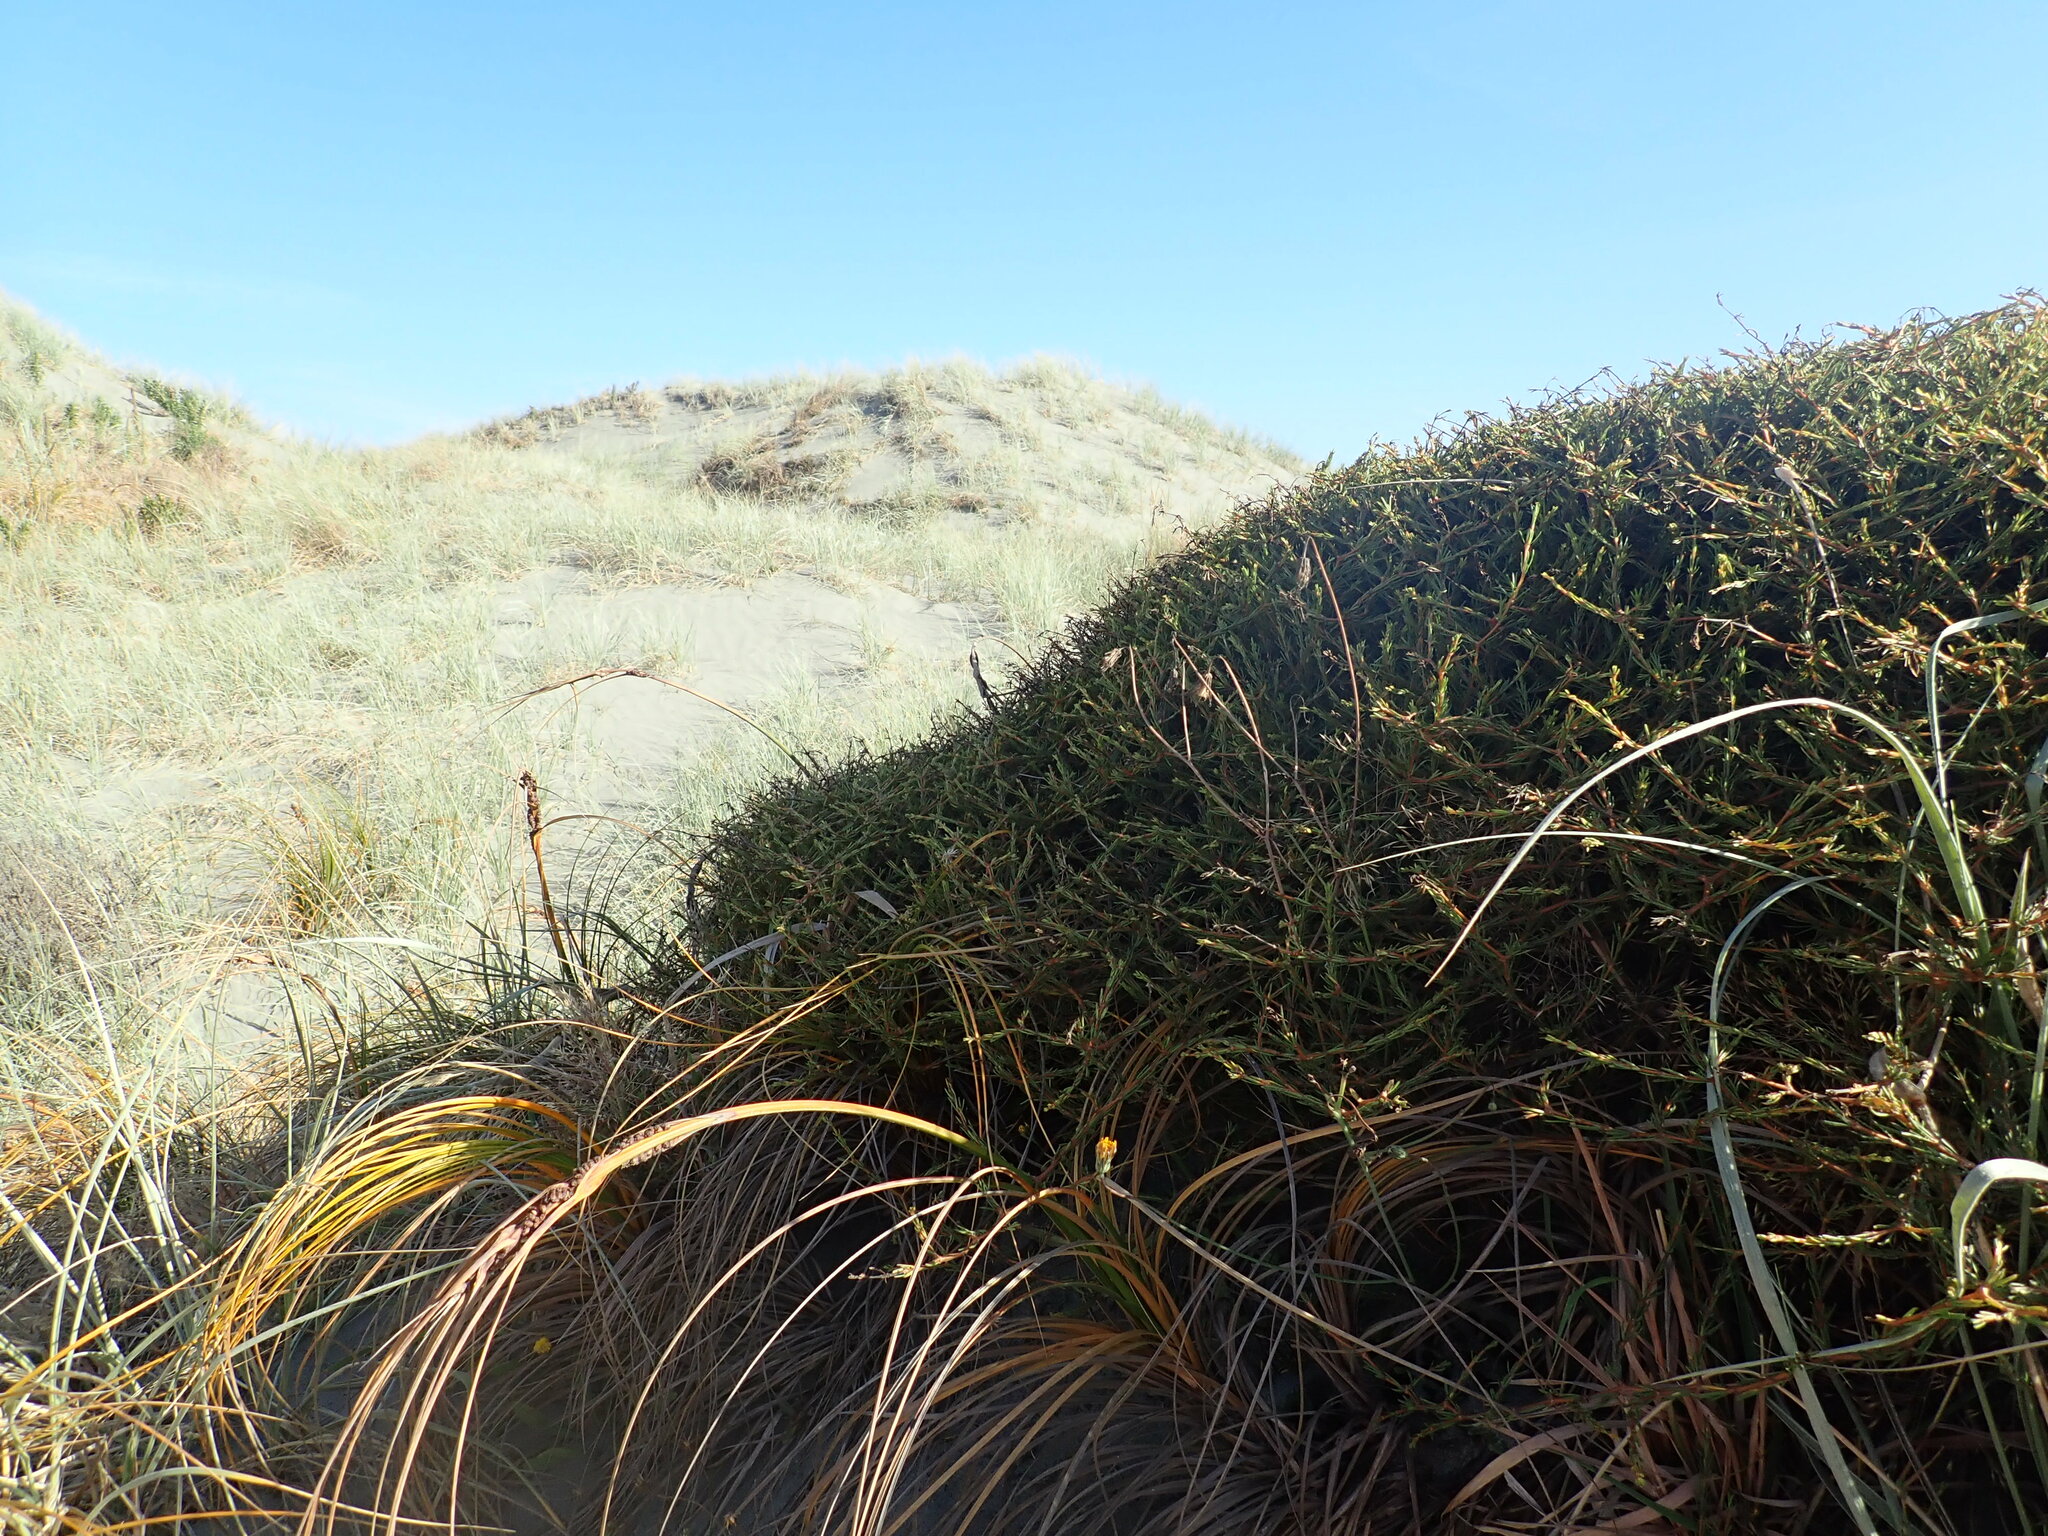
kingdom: Plantae
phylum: Tracheophyta
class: Magnoliopsida
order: Gentianales
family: Rubiaceae
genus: Coprosma
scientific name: Coprosma acerosa
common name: Sand coprosma
